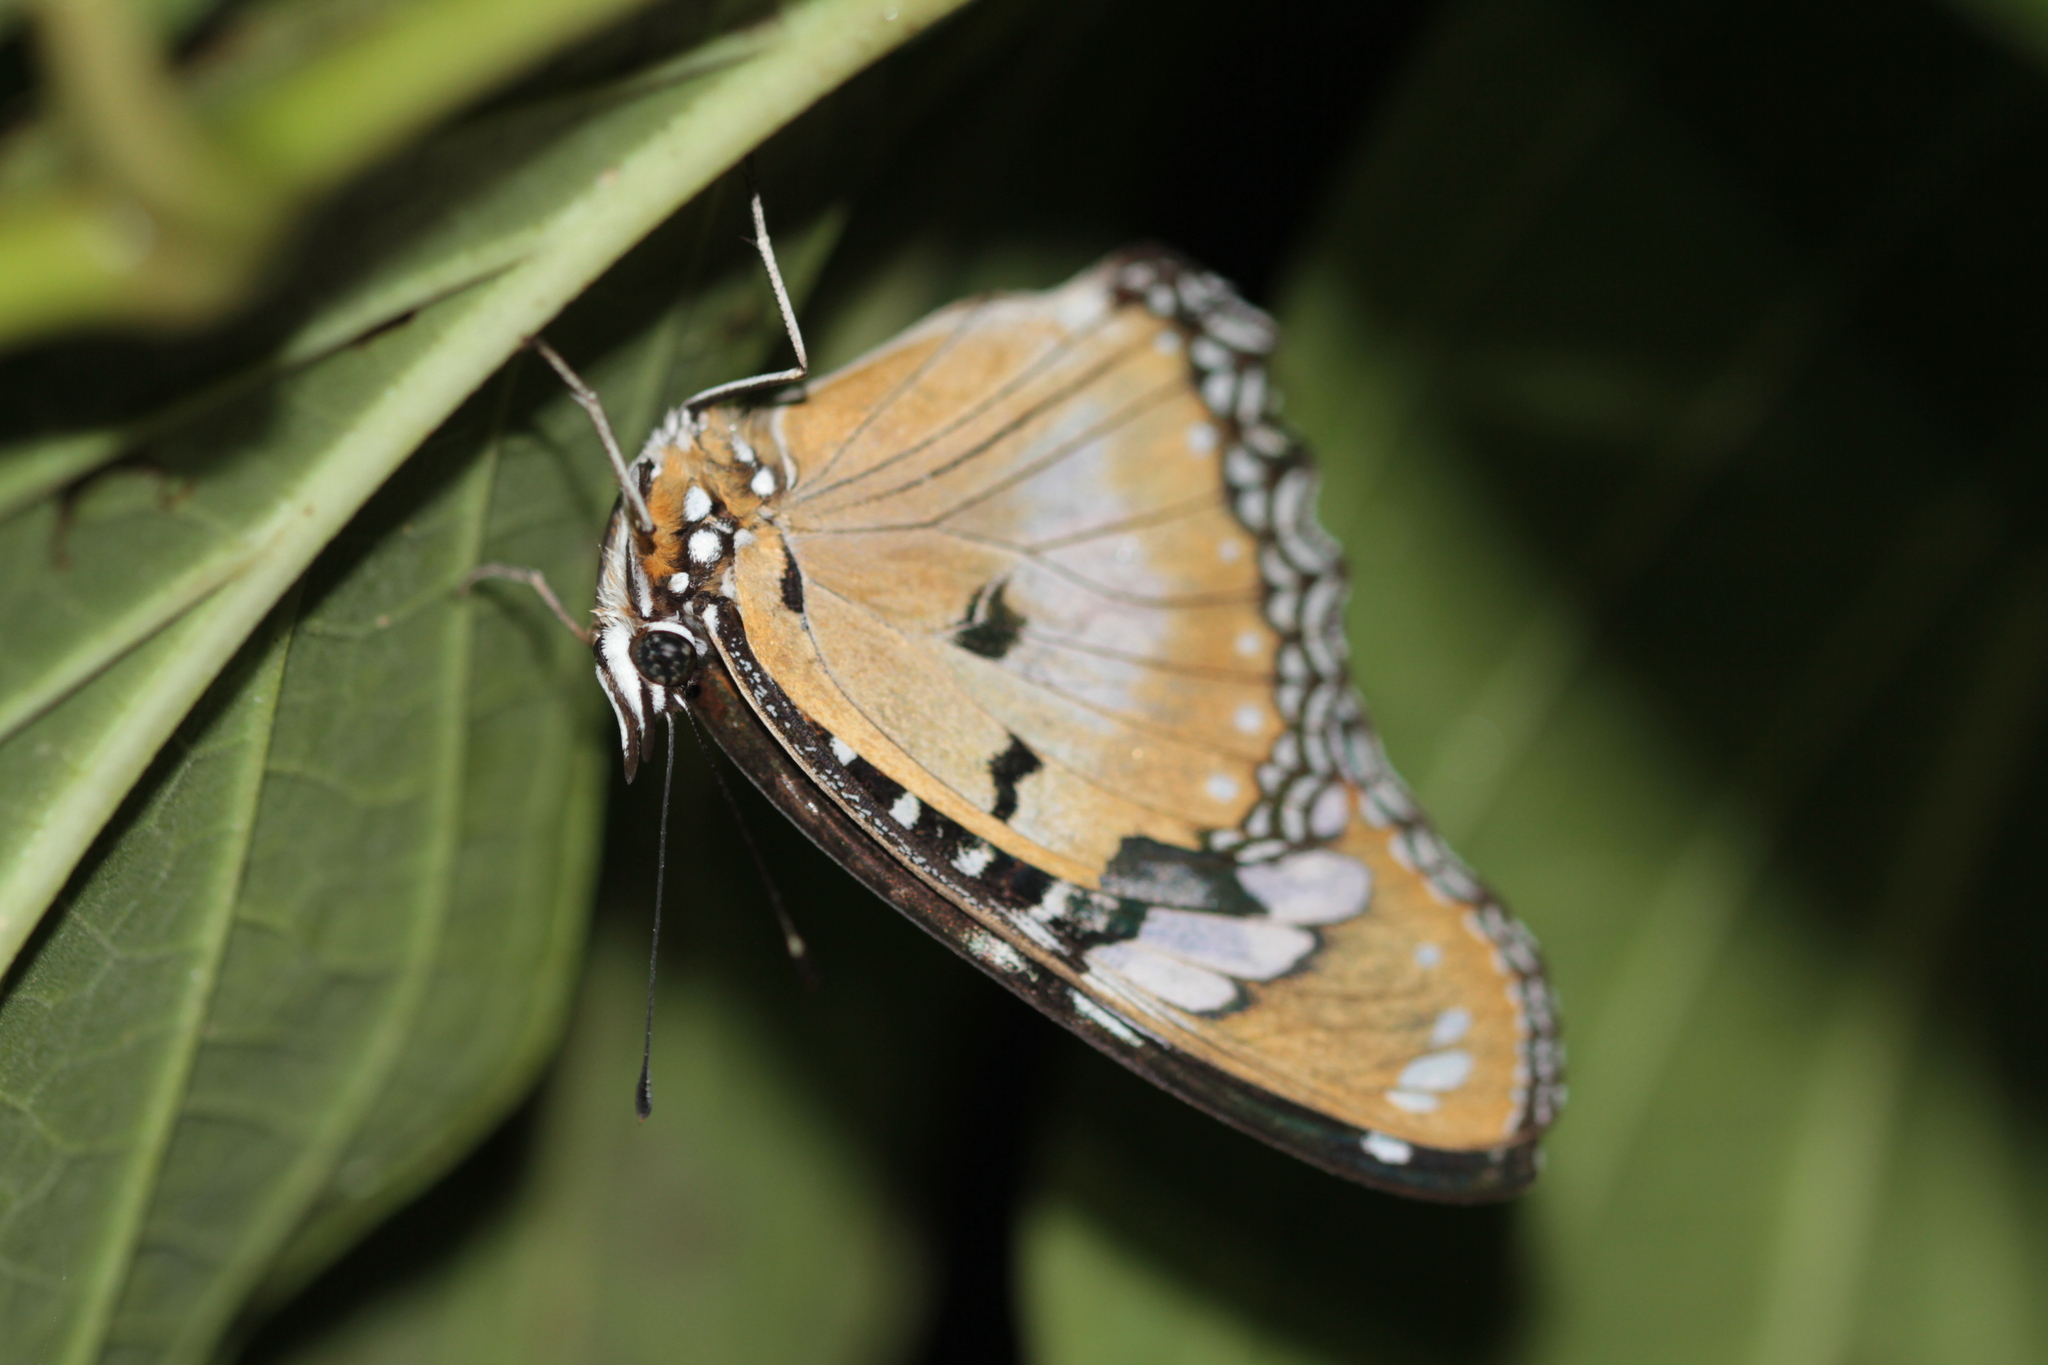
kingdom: Animalia
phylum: Arthropoda
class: Insecta
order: Lepidoptera
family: Nymphalidae
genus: Hypolimnas
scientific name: Hypolimnas misippus
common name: False plain tiger
